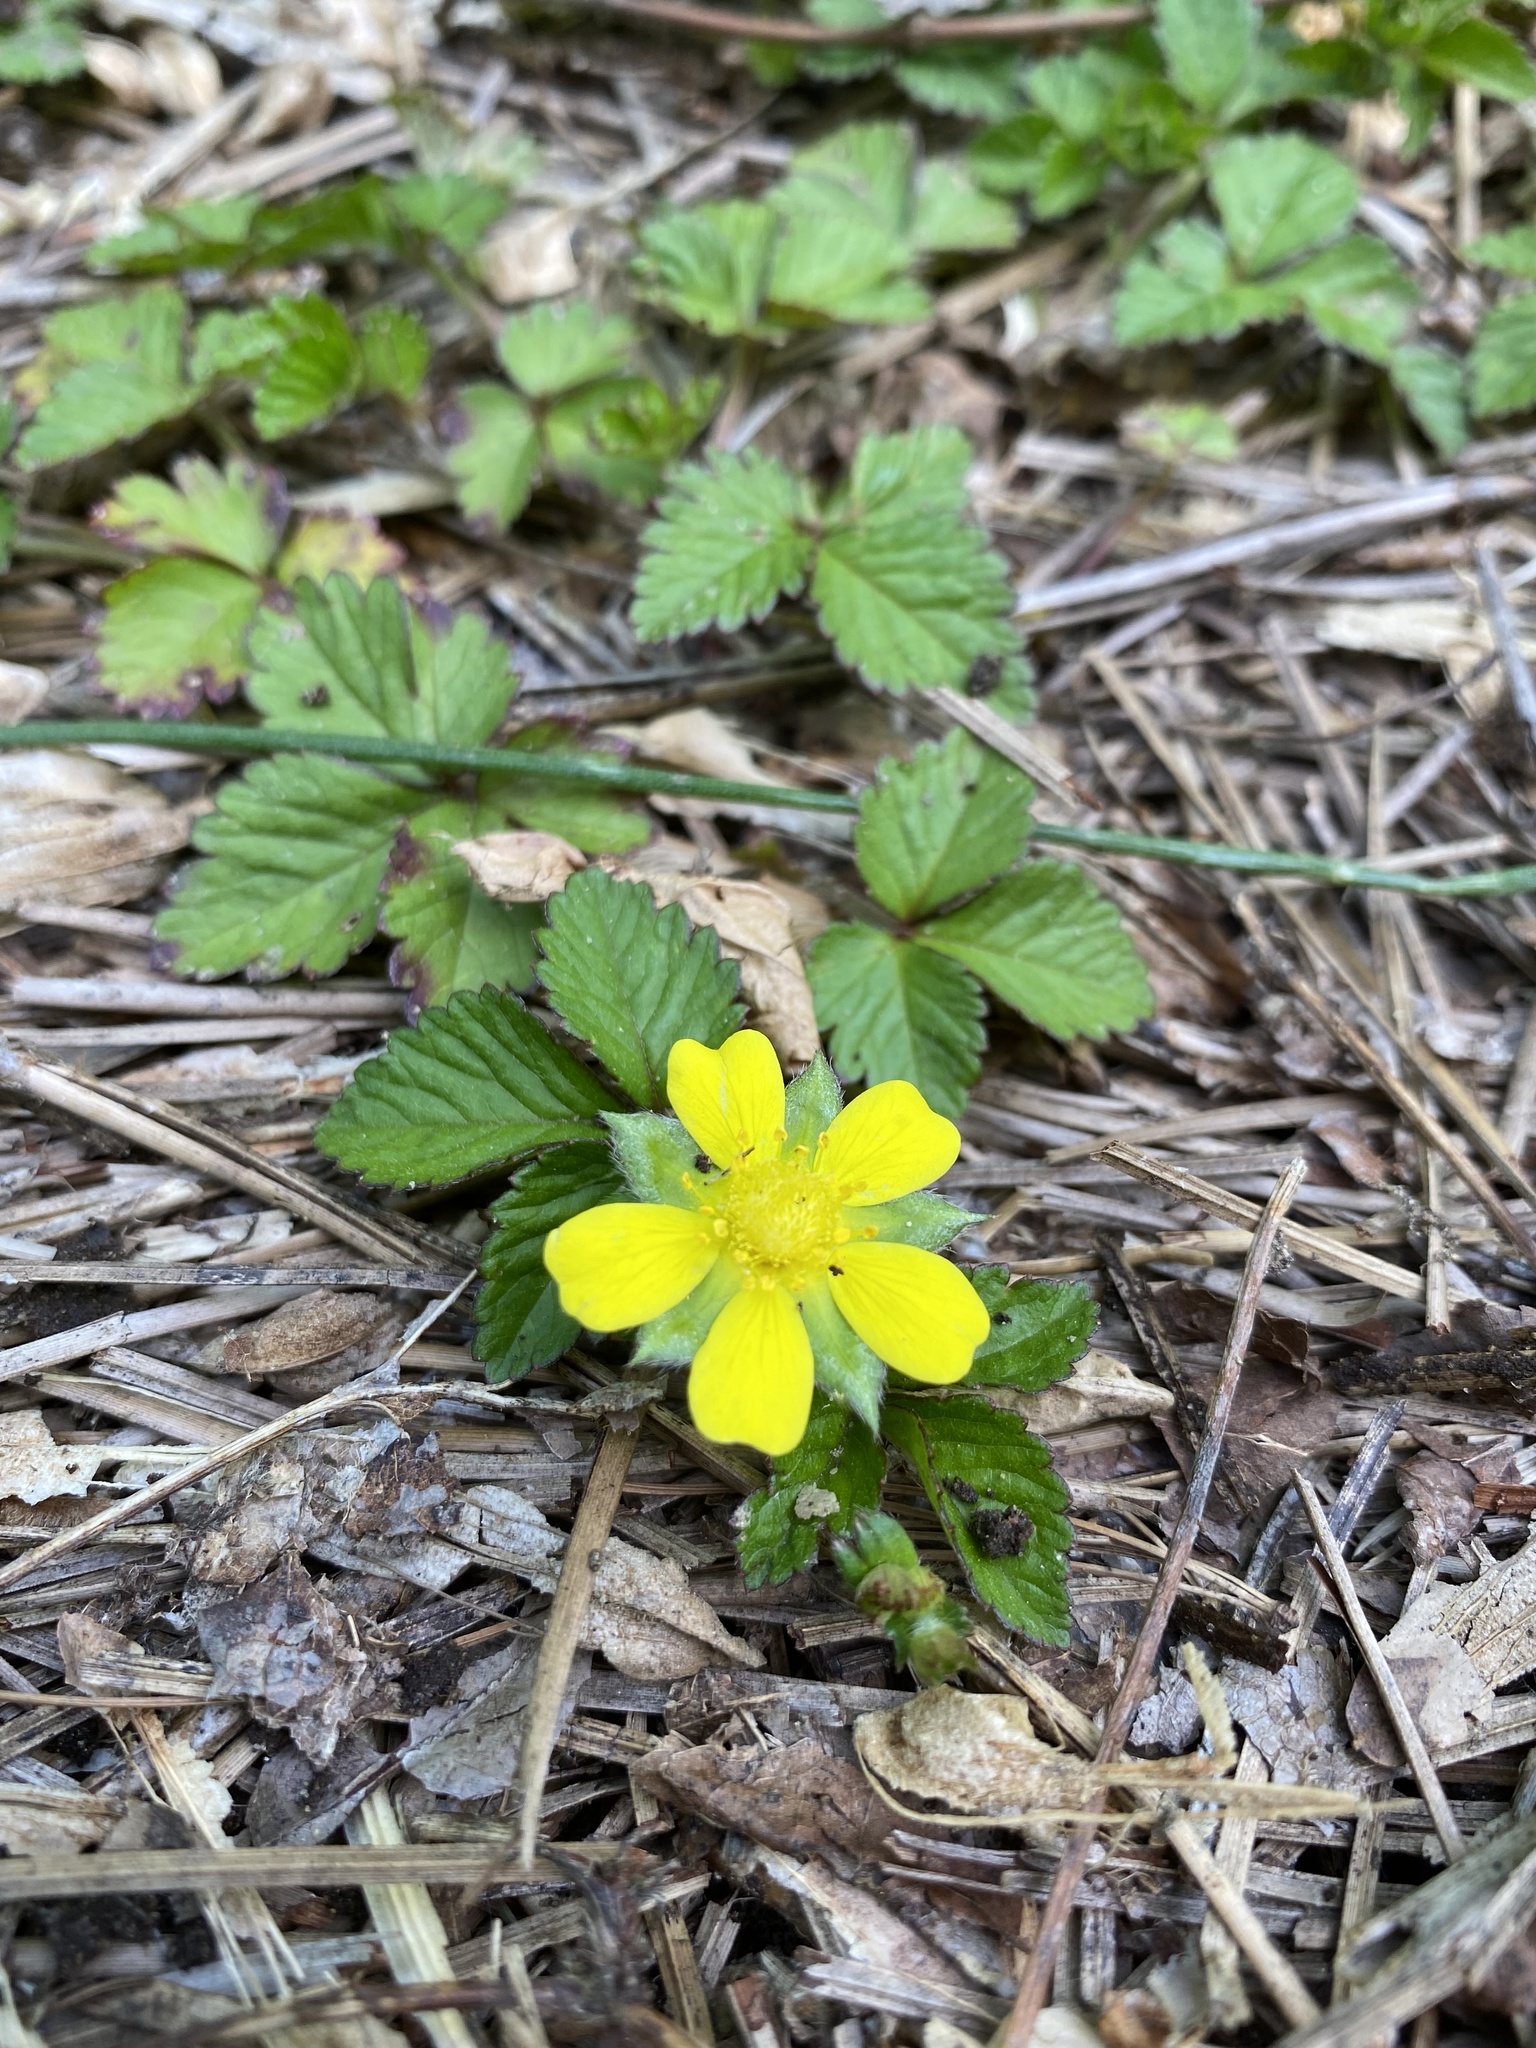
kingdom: Plantae
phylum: Tracheophyta
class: Magnoliopsida
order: Rosales
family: Rosaceae
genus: Potentilla
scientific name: Potentilla indica
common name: Yellow-flowered strawberry
